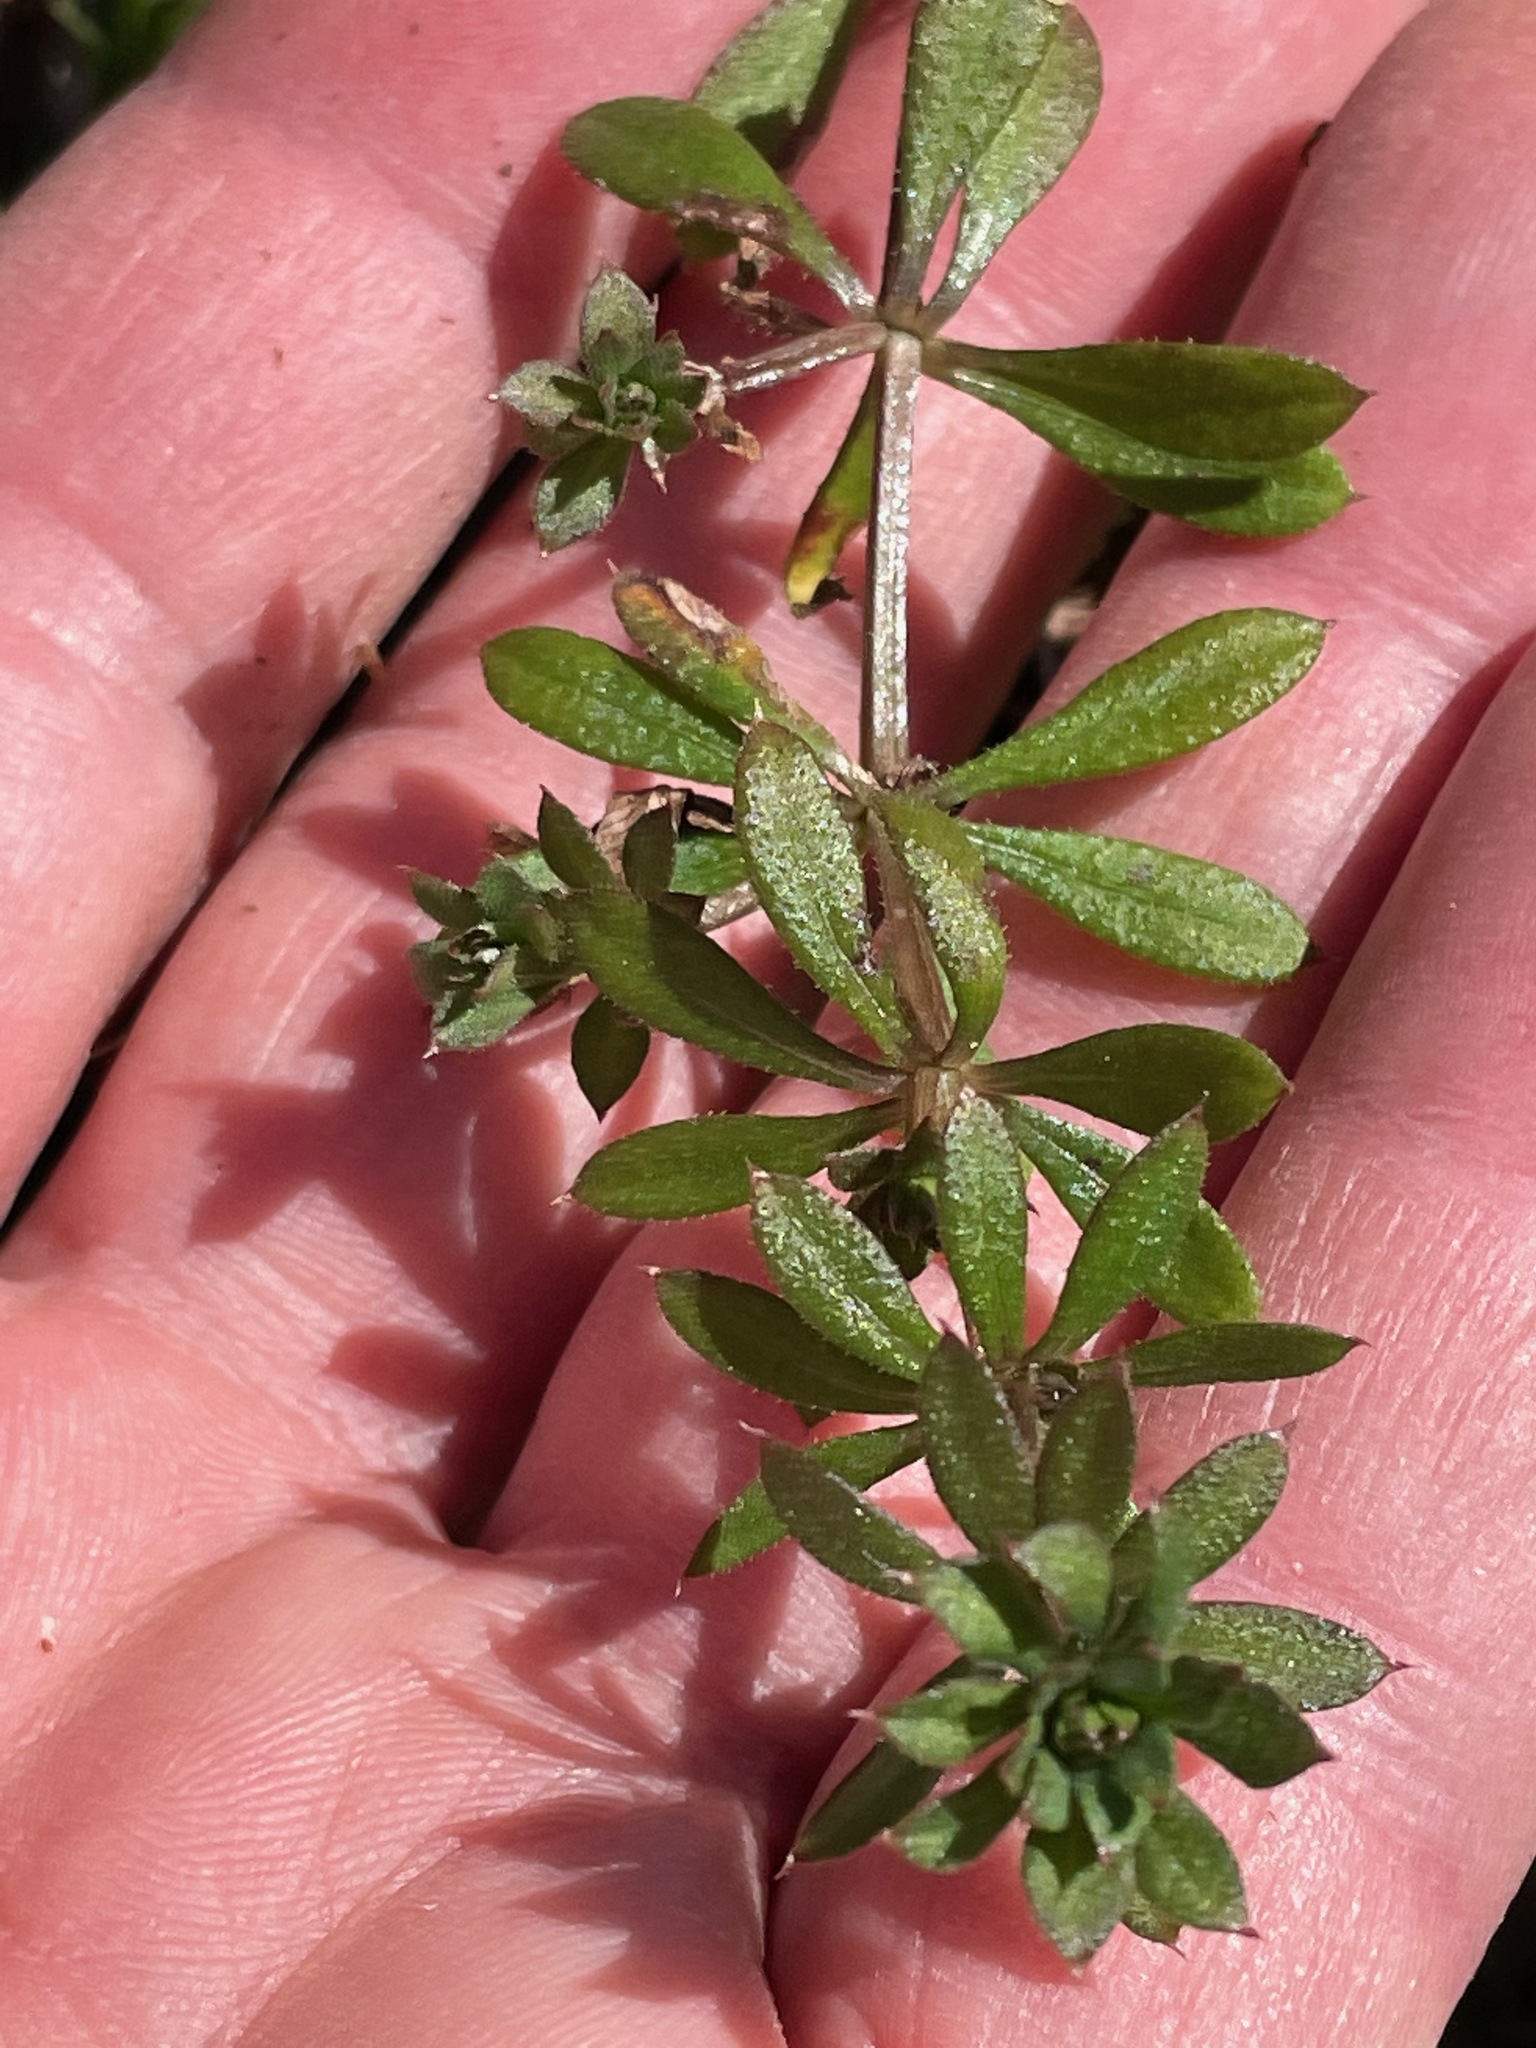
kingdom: Plantae
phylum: Tracheophyta
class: Magnoliopsida
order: Gentianales
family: Rubiaceae
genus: Galium
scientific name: Galium aparine
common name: Cleavers
